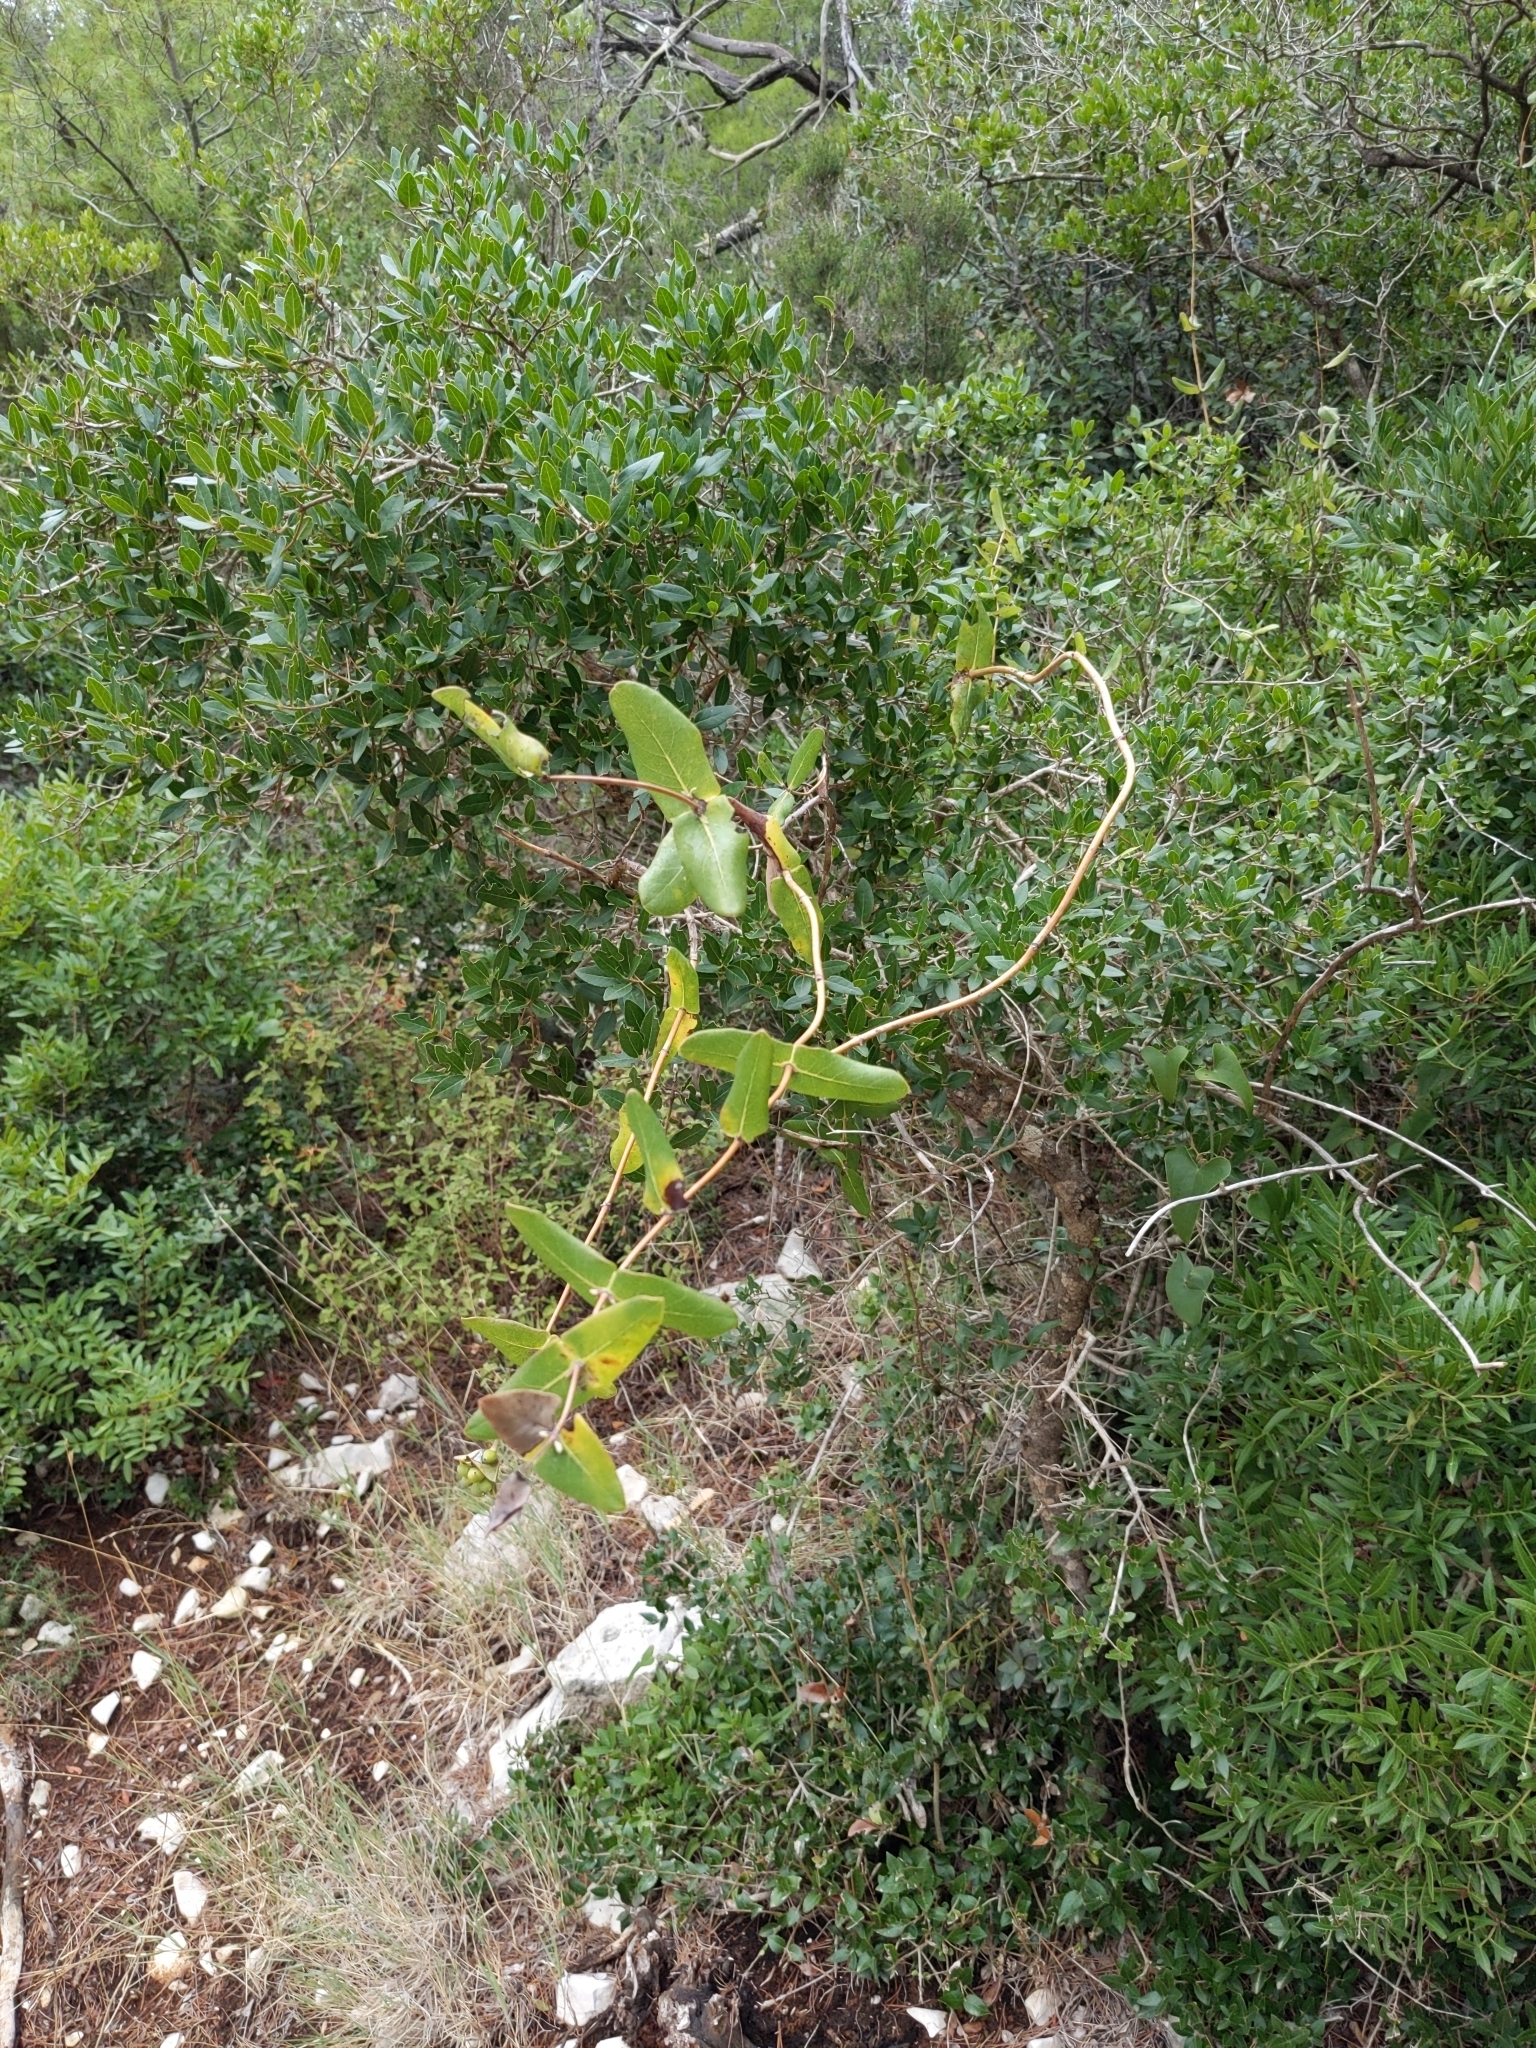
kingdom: Plantae
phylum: Tracheophyta
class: Magnoliopsida
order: Dipsacales
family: Caprifoliaceae
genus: Lonicera
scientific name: Lonicera implexa
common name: Minorca honeysuckle
